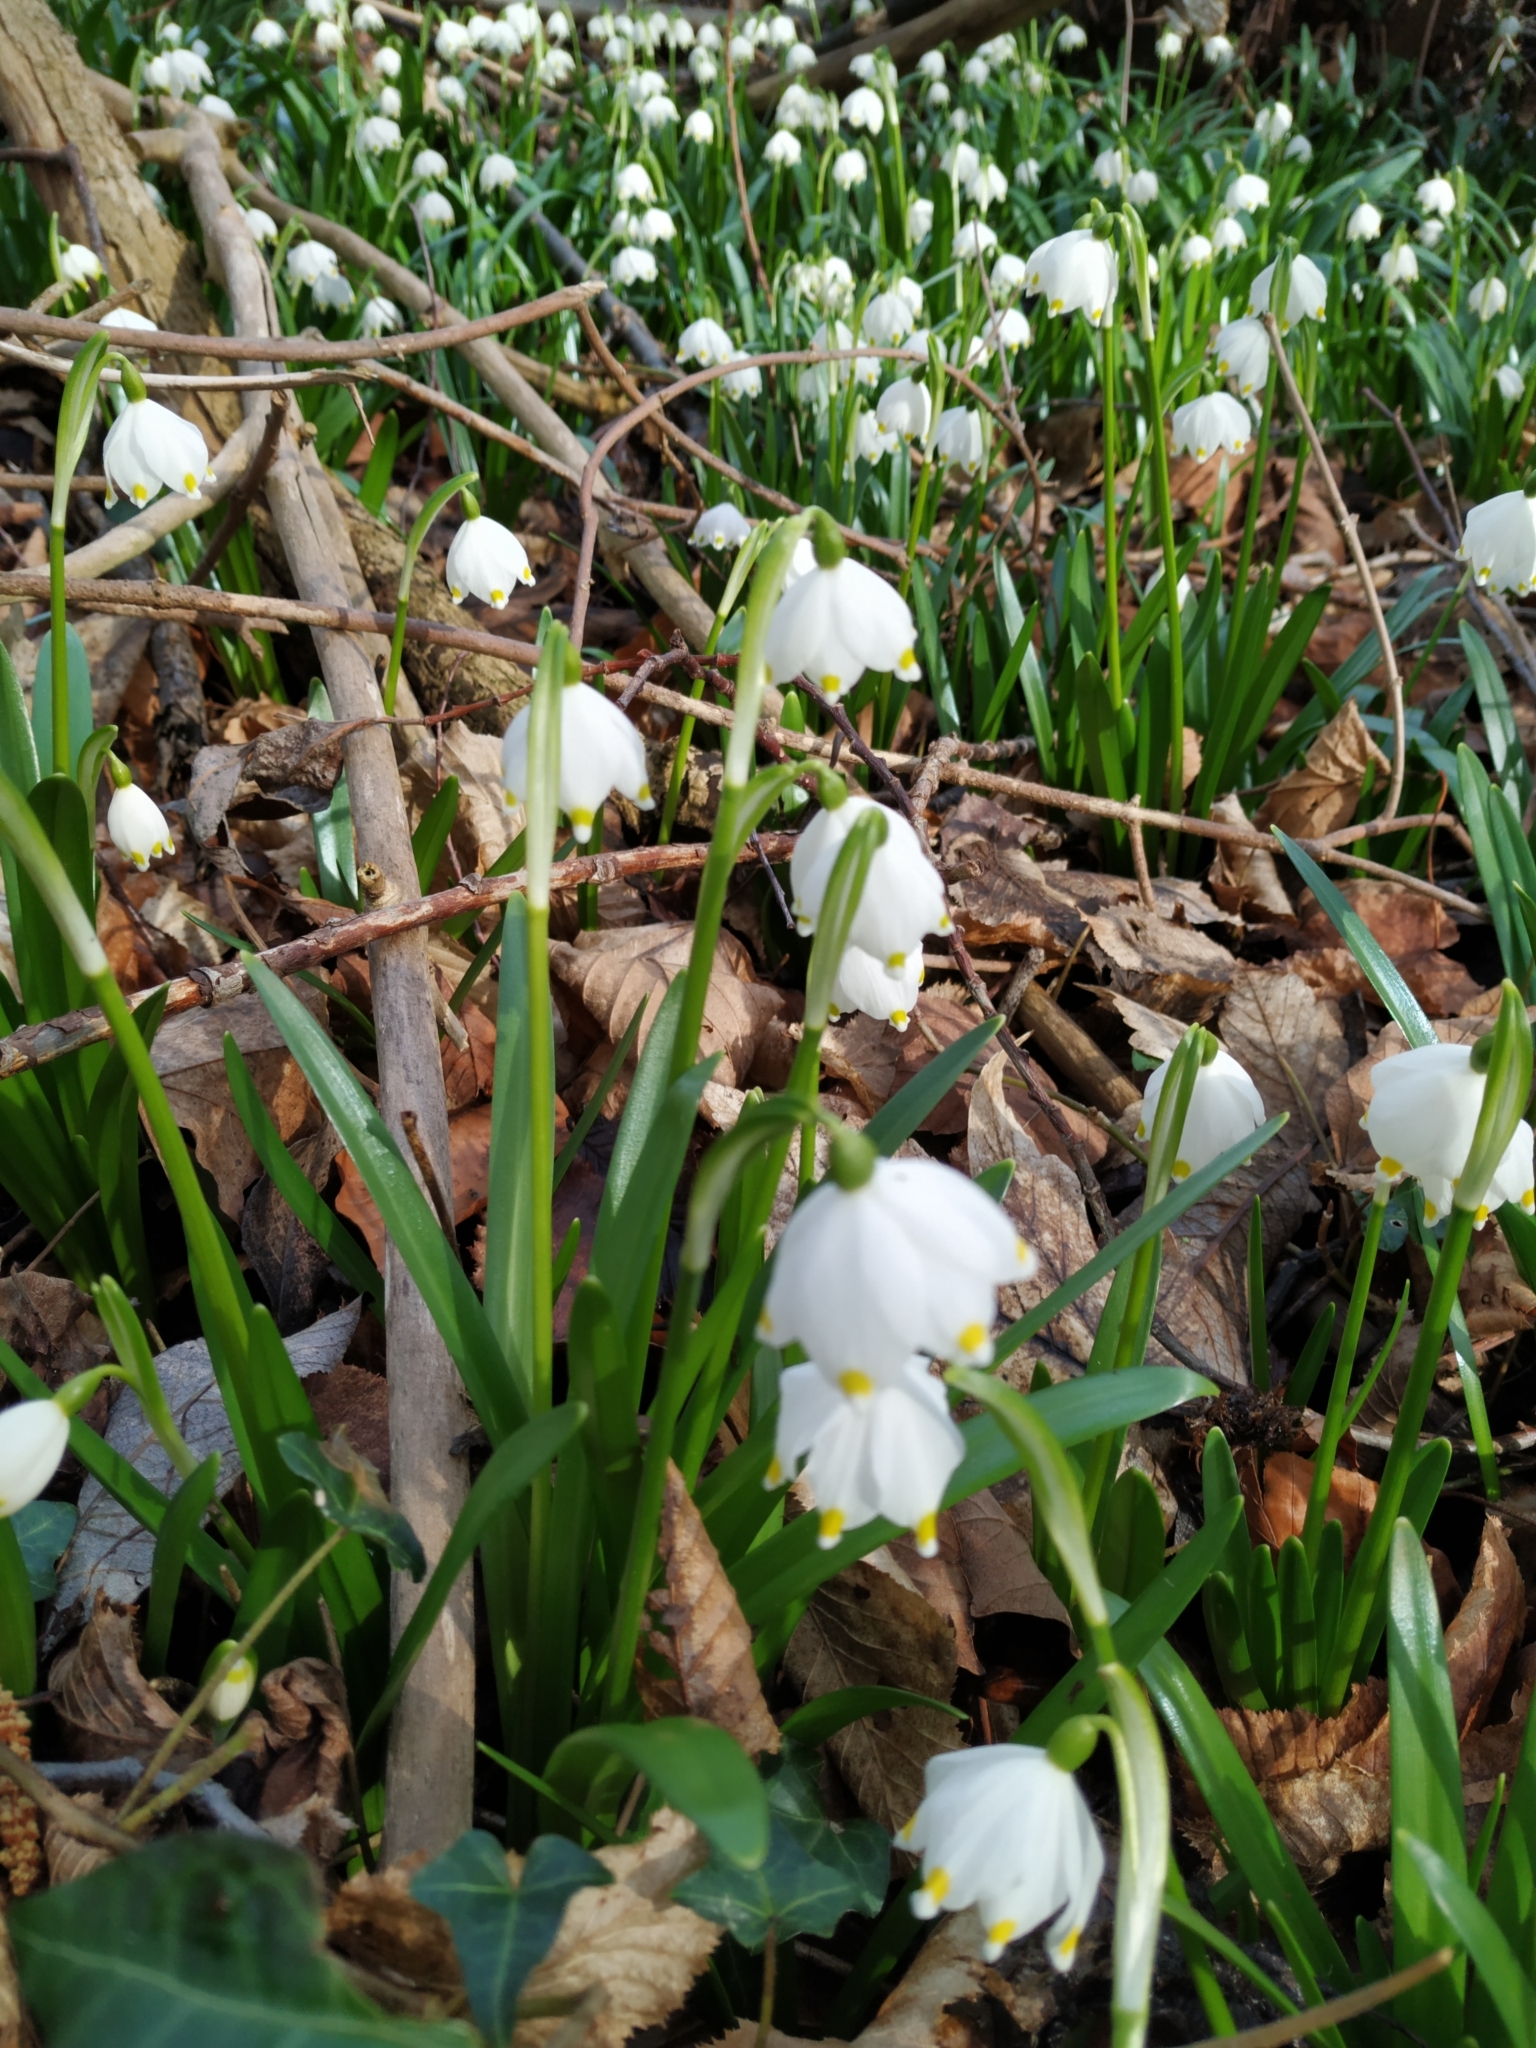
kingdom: Plantae
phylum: Tracheophyta
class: Liliopsida
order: Asparagales
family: Amaryllidaceae
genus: Leucojum
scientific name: Leucojum vernum
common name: Spring snowflake
